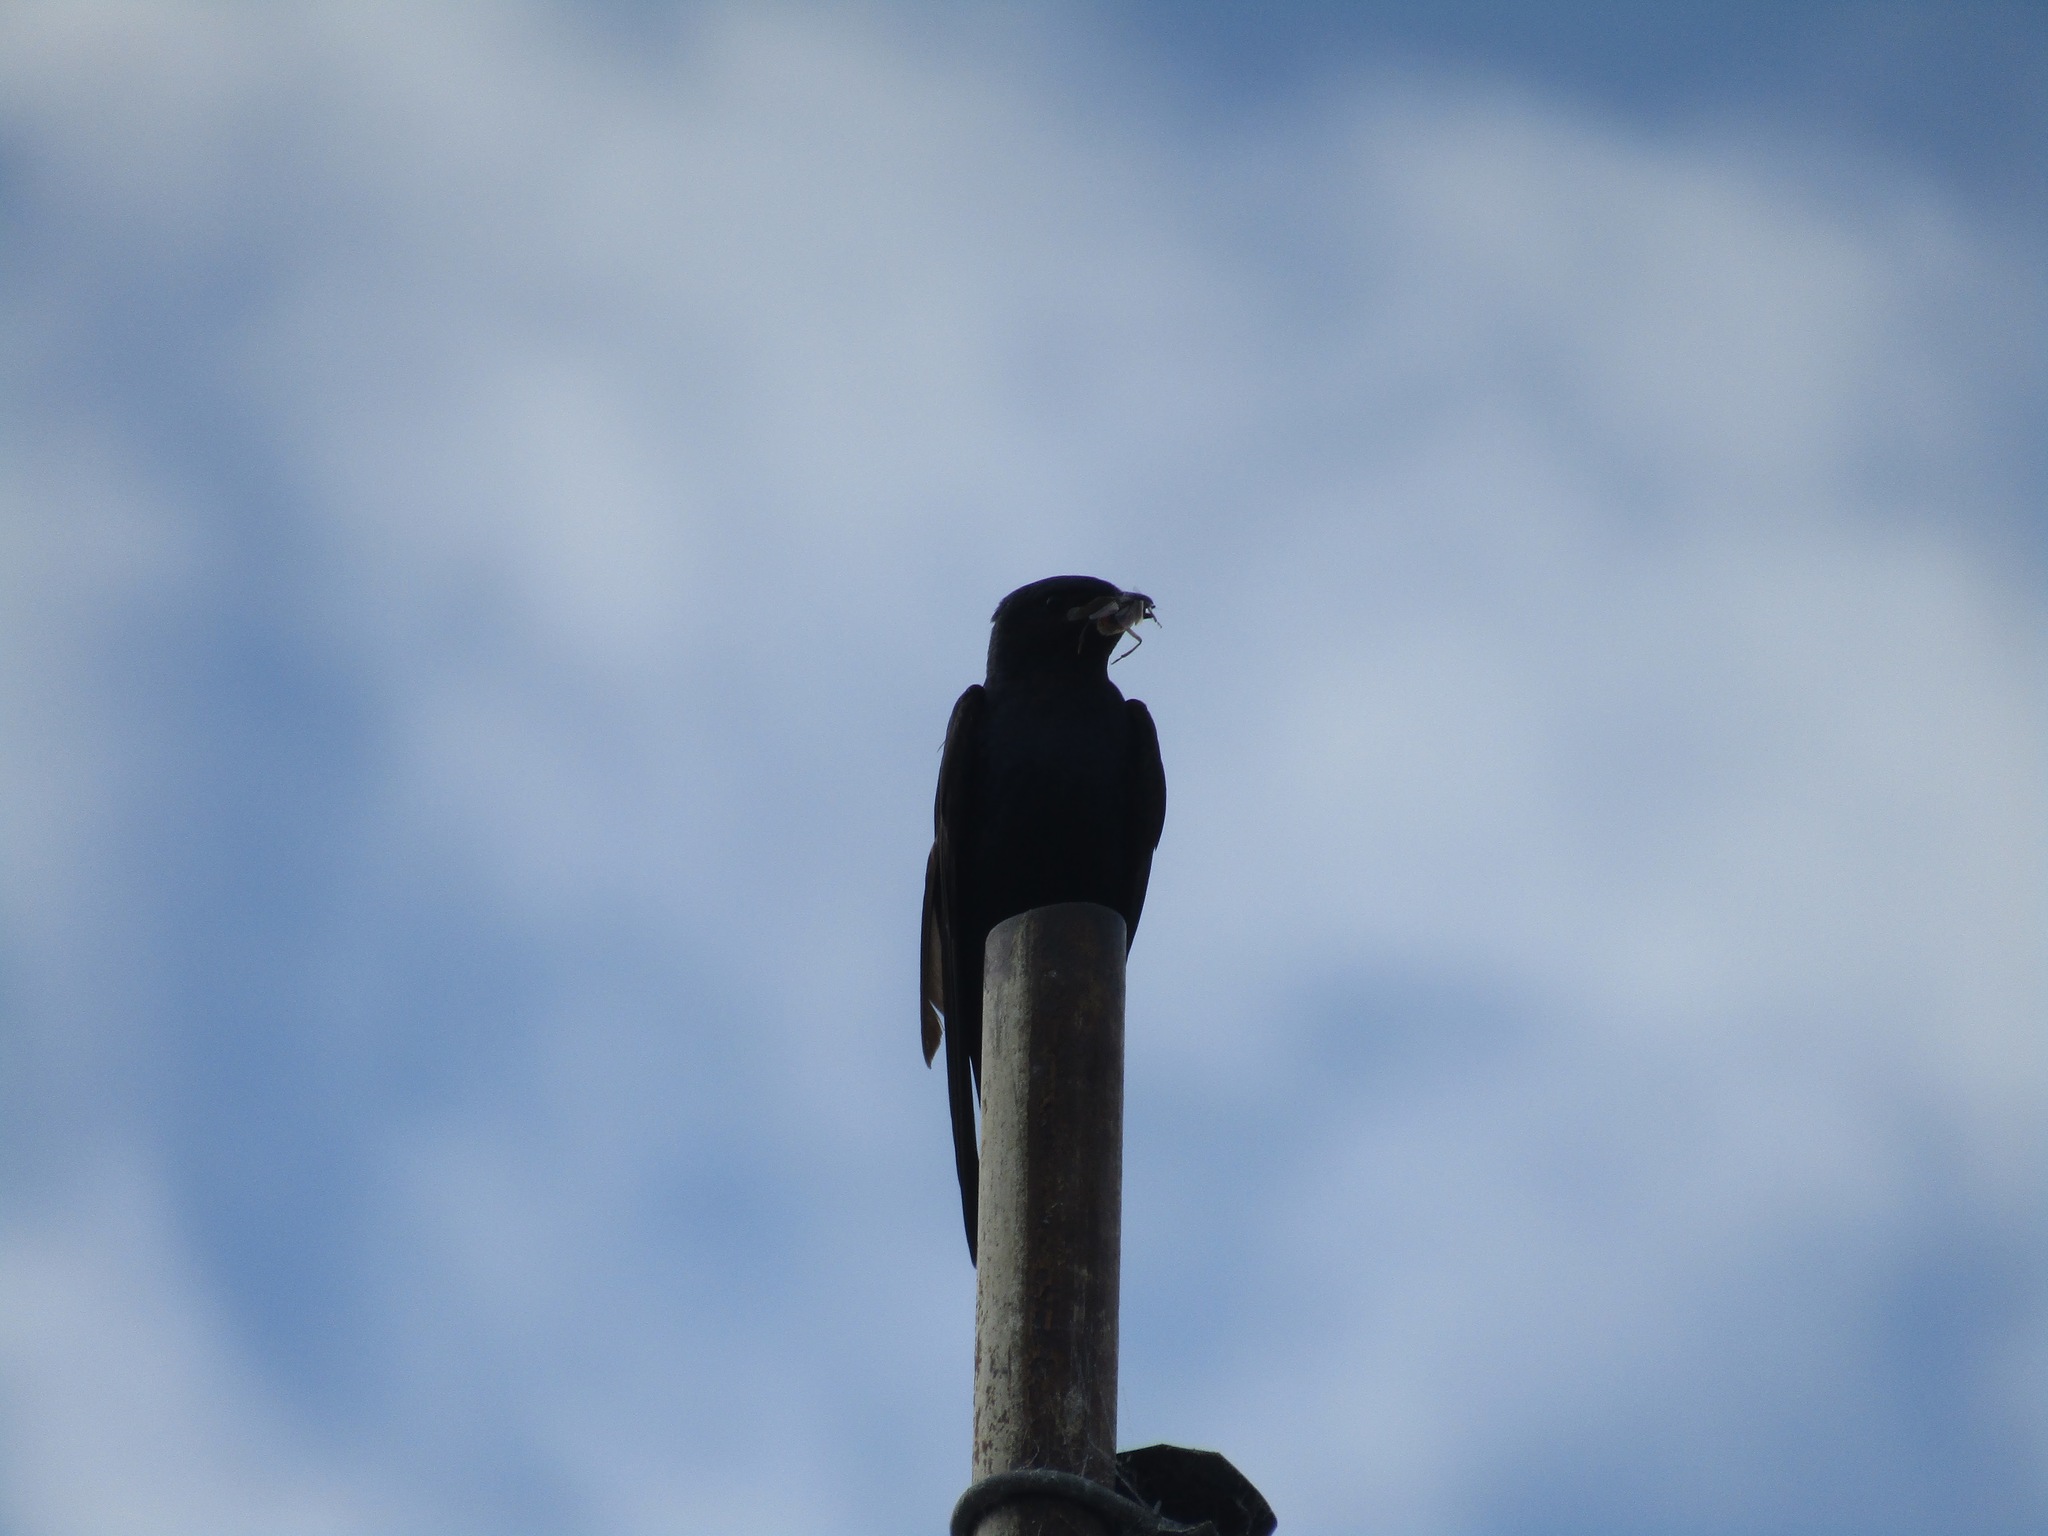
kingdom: Animalia
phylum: Chordata
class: Aves
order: Passeriformes
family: Hirundinidae
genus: Progne
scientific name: Progne elegans
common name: Southern martin
